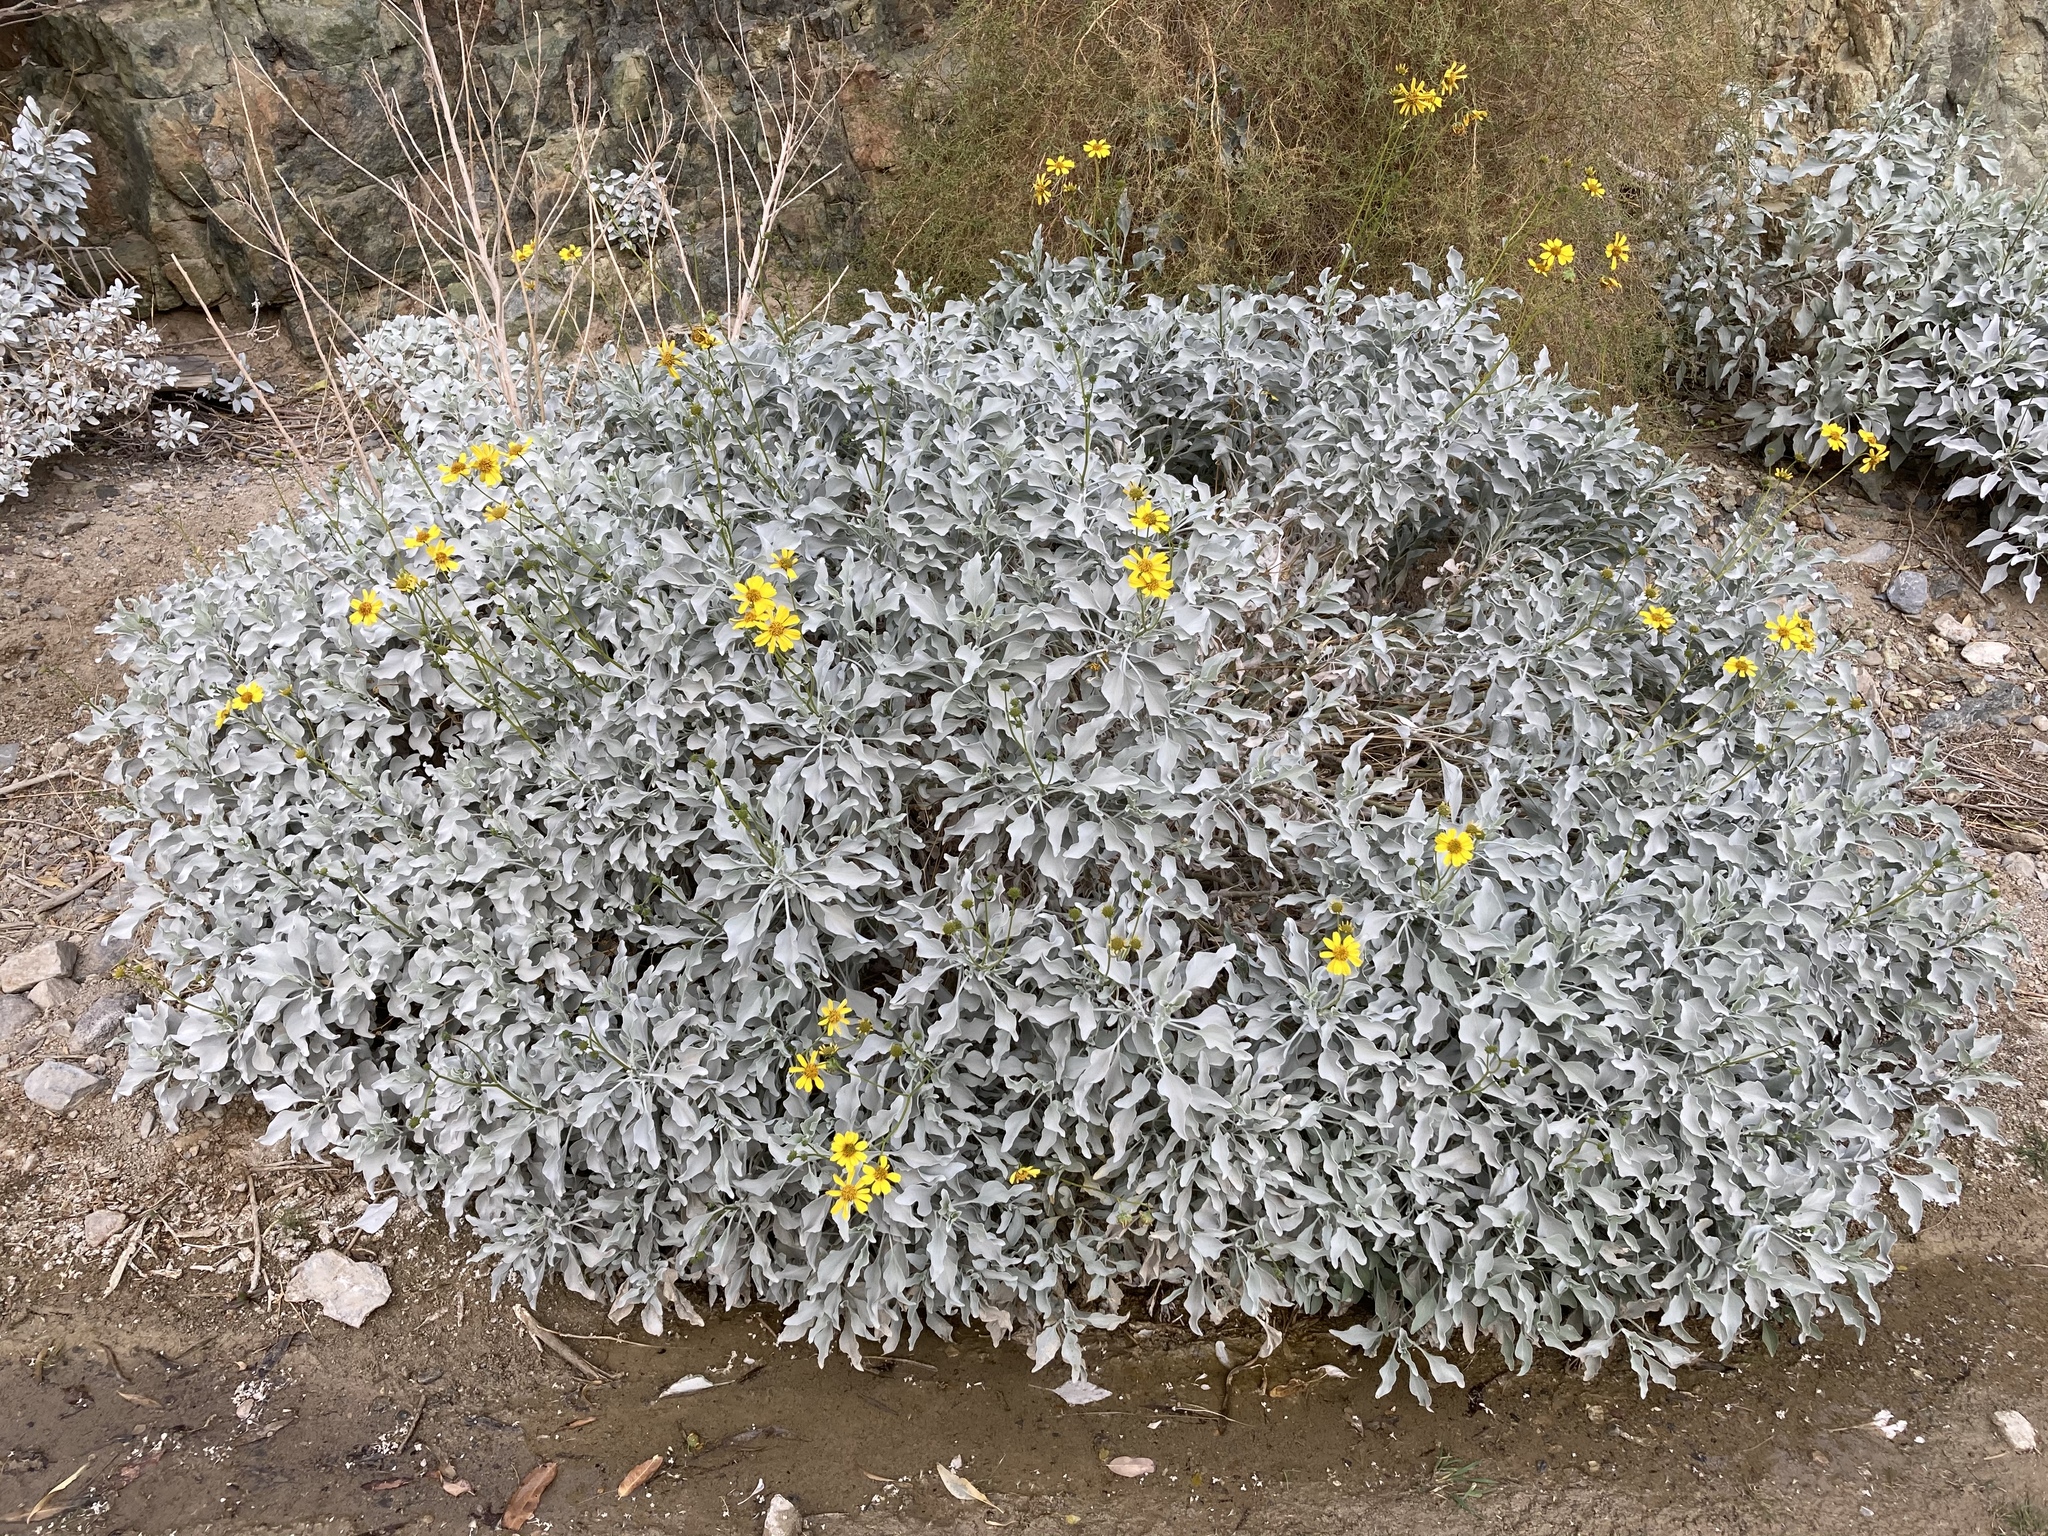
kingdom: Plantae
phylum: Tracheophyta
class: Magnoliopsida
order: Asterales
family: Asteraceae
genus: Encelia
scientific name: Encelia farinosa
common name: Brittlebush
